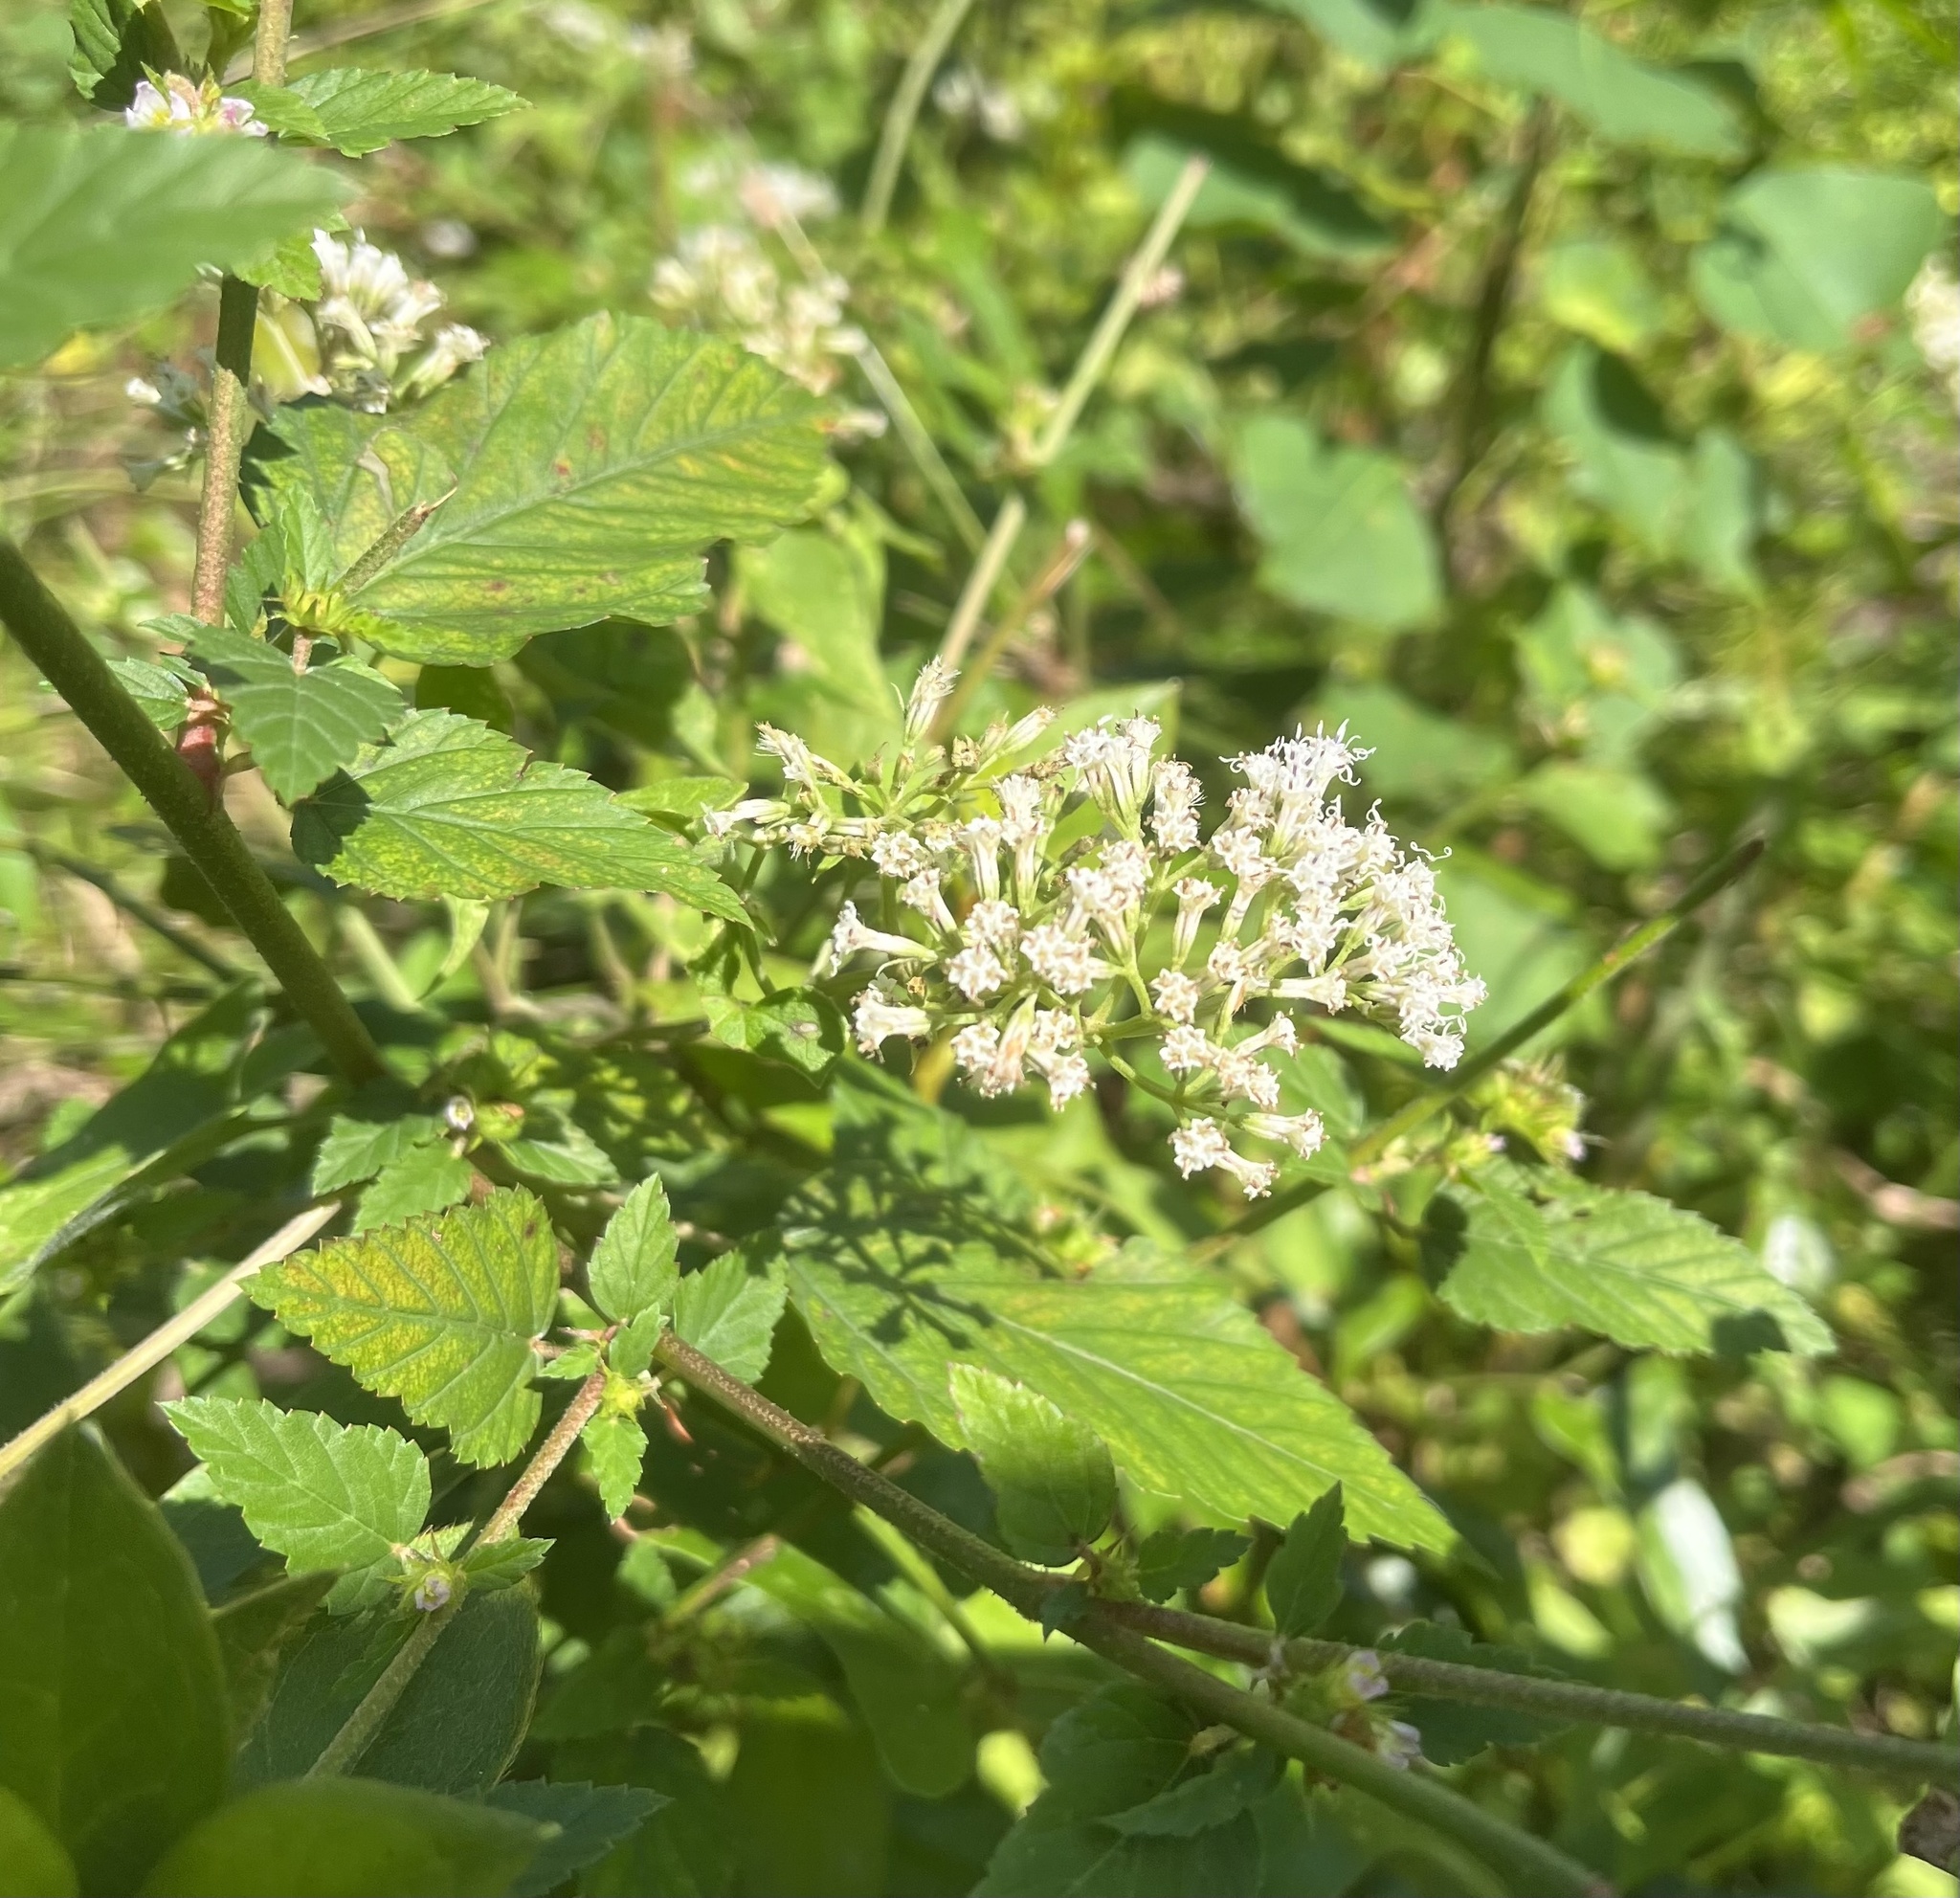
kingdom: Plantae
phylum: Tracheophyta
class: Magnoliopsida
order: Asterales
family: Asteraceae
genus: Mikania
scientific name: Mikania scandens
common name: Climbing hempvine
